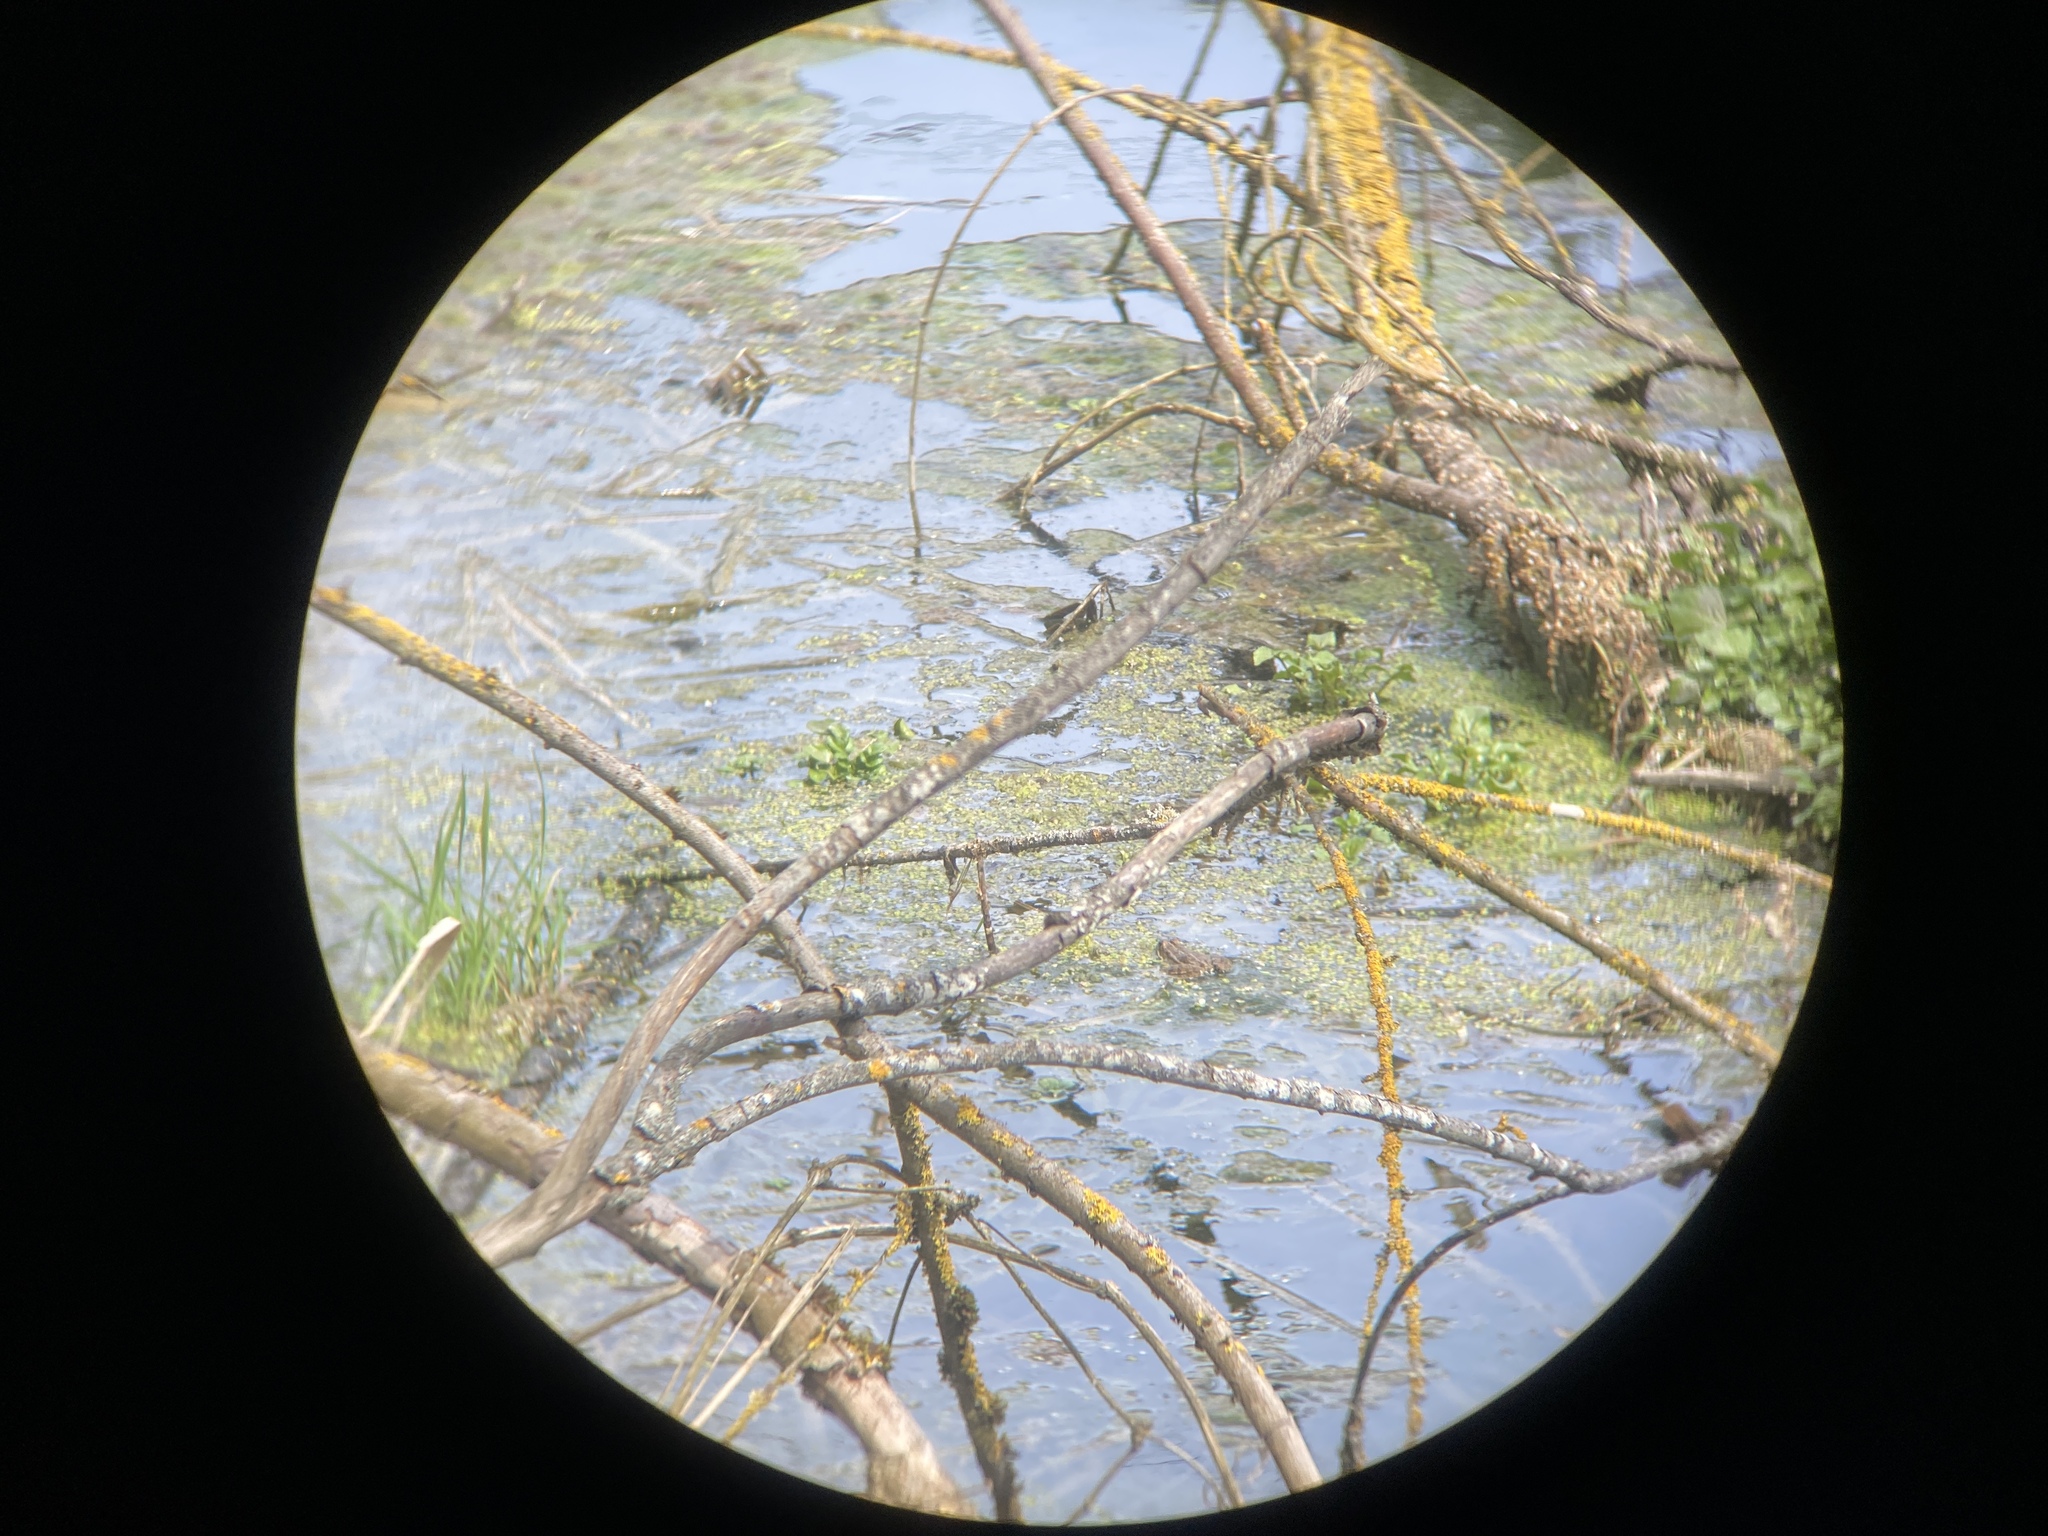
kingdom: Animalia
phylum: Chordata
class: Amphibia
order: Anura
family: Ranidae
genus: Pelophylax
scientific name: Pelophylax perezi
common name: Perez's frog
